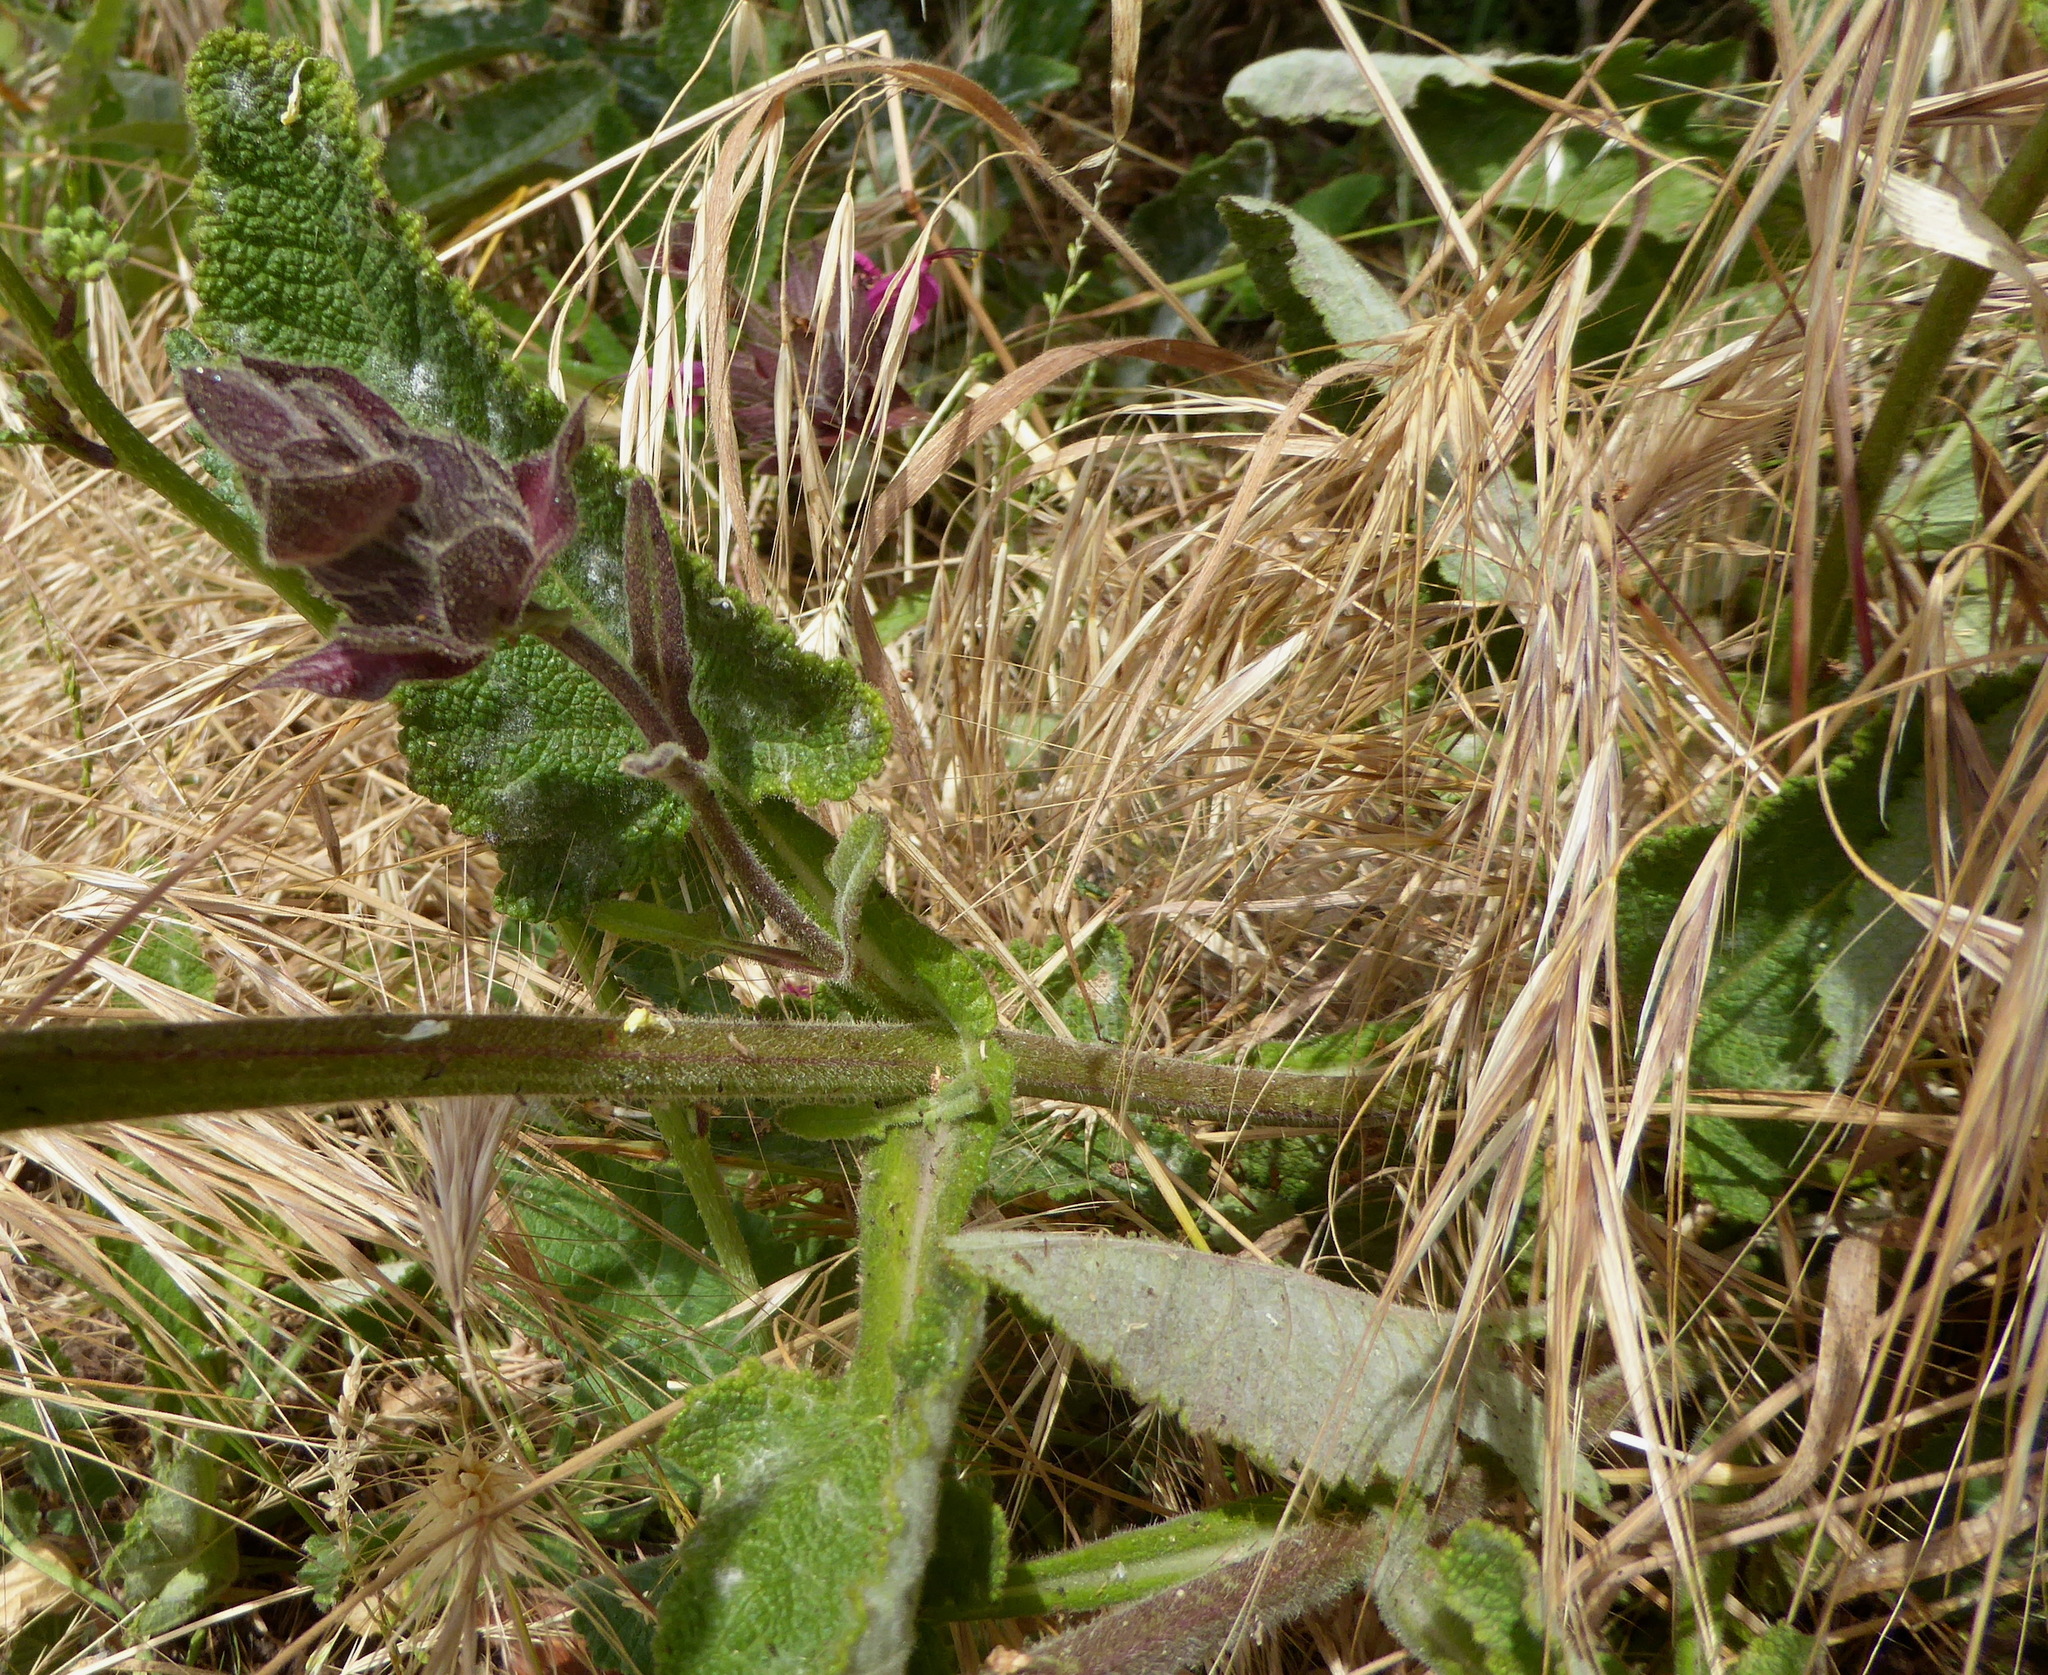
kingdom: Plantae
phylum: Tracheophyta
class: Magnoliopsida
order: Lamiales
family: Lamiaceae
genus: Salvia
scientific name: Salvia spathacea
